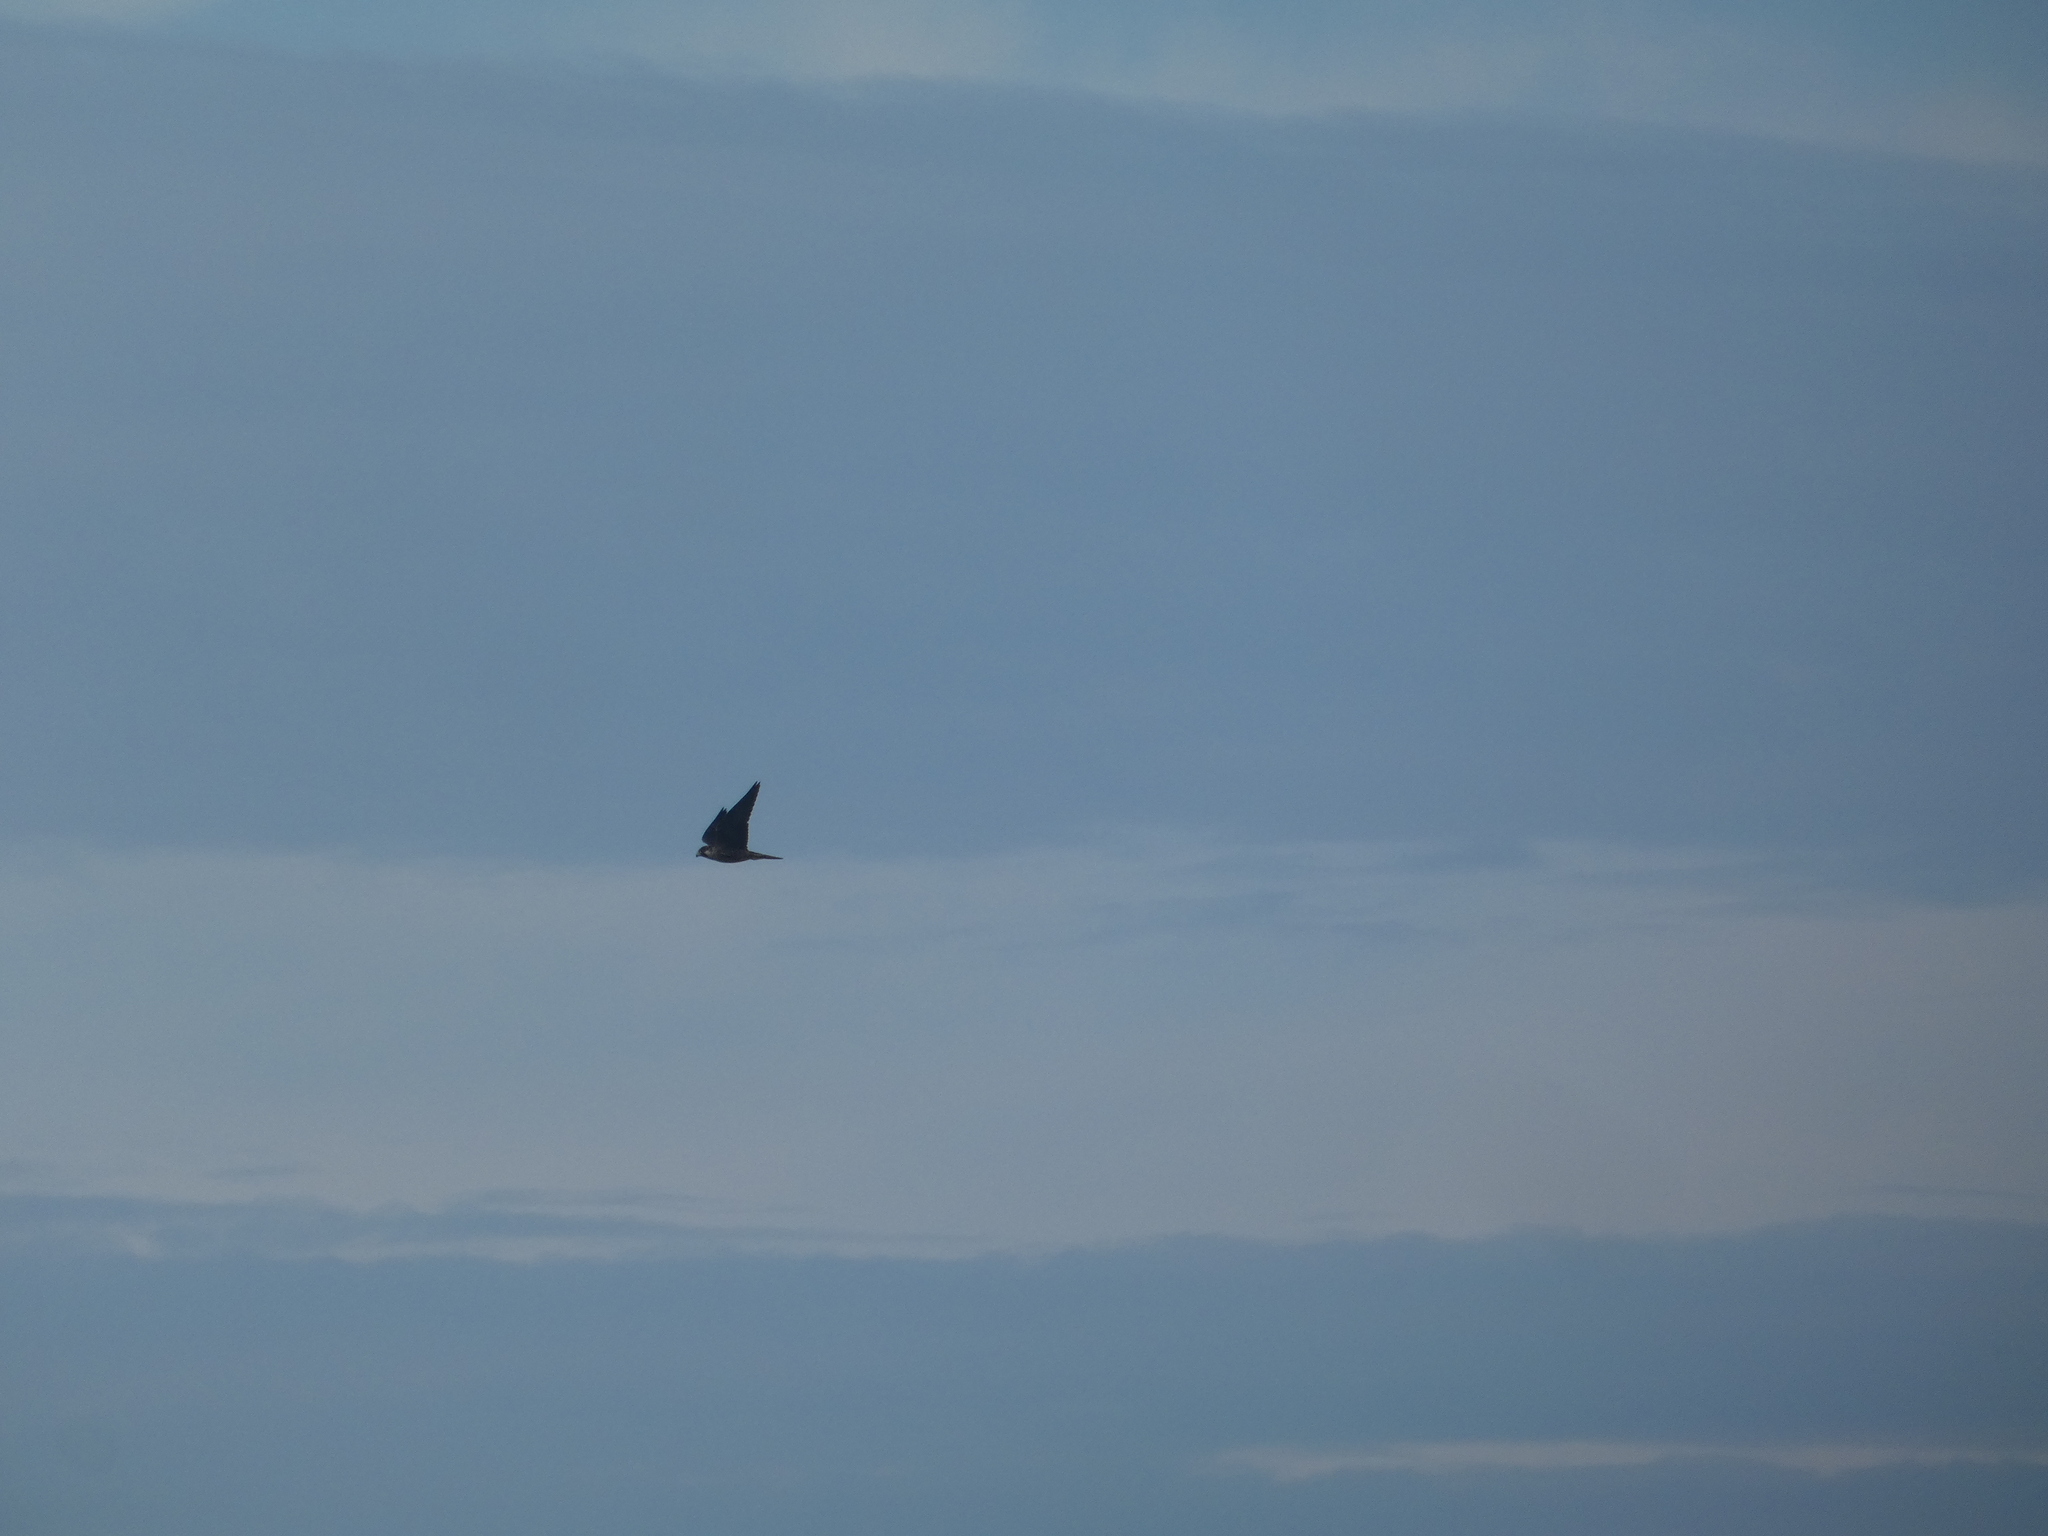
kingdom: Animalia
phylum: Chordata
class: Aves
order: Falconiformes
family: Falconidae
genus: Falco
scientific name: Falco peregrinus
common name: Peregrine falcon
